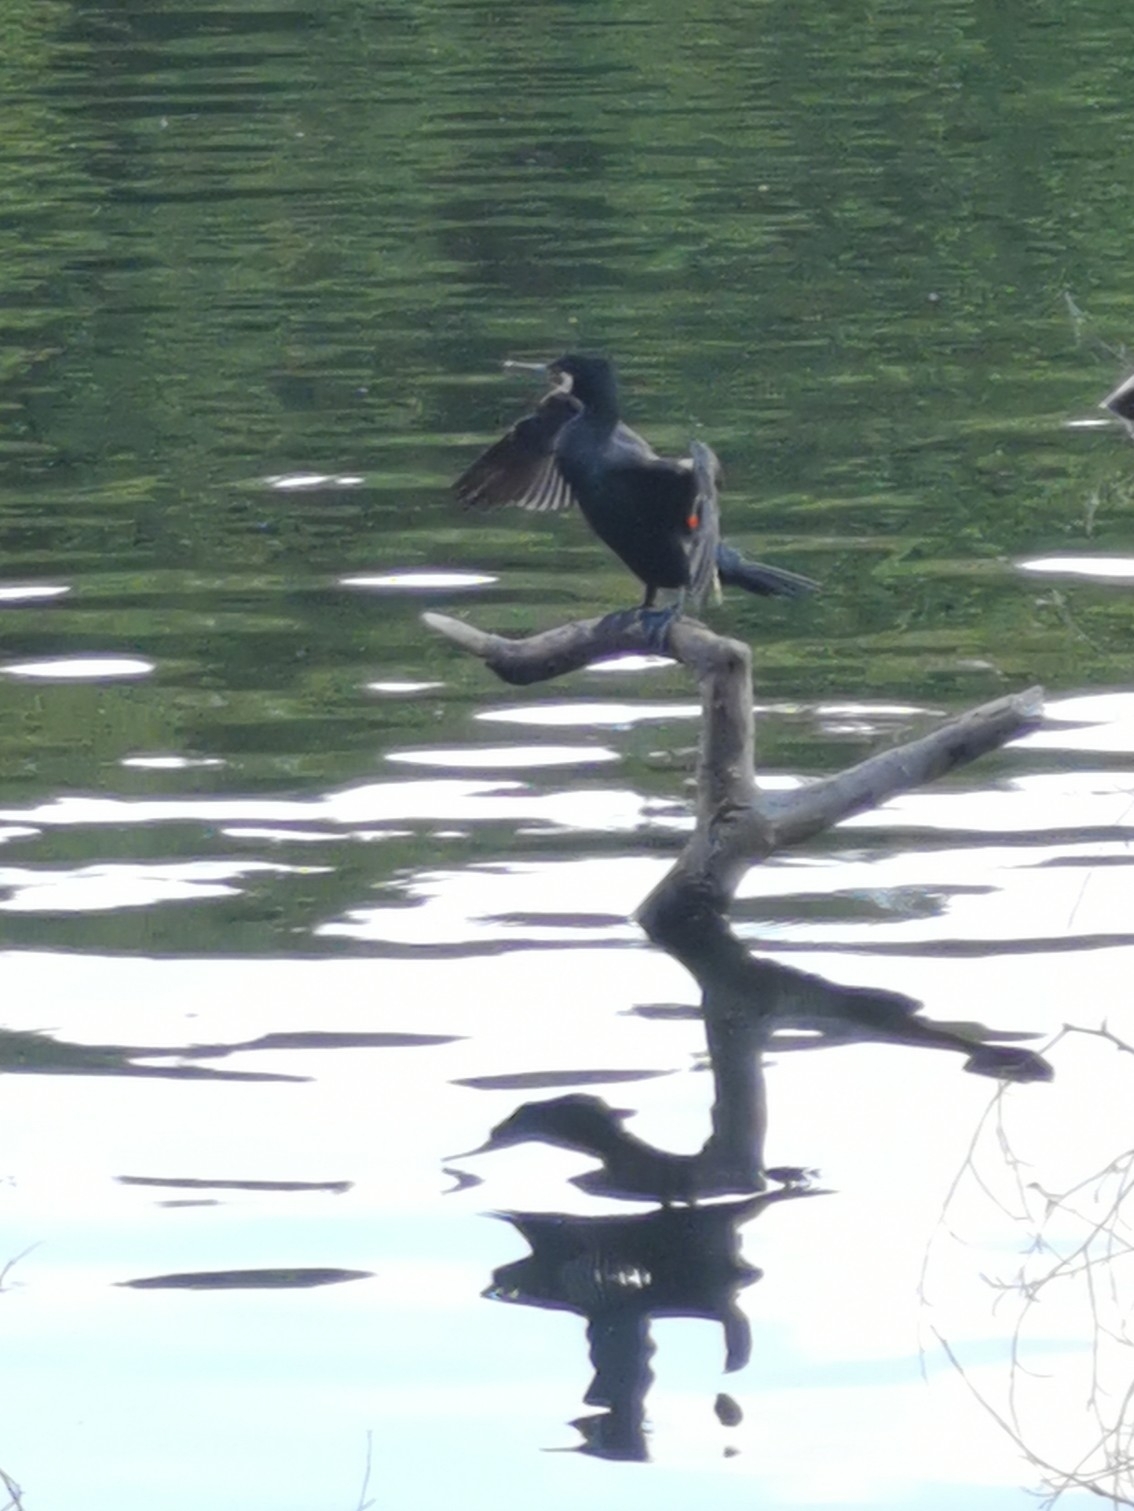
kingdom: Animalia
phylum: Chordata
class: Aves
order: Suliformes
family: Phalacrocoracidae
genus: Phalacrocorax
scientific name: Phalacrocorax carbo
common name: Great cormorant
